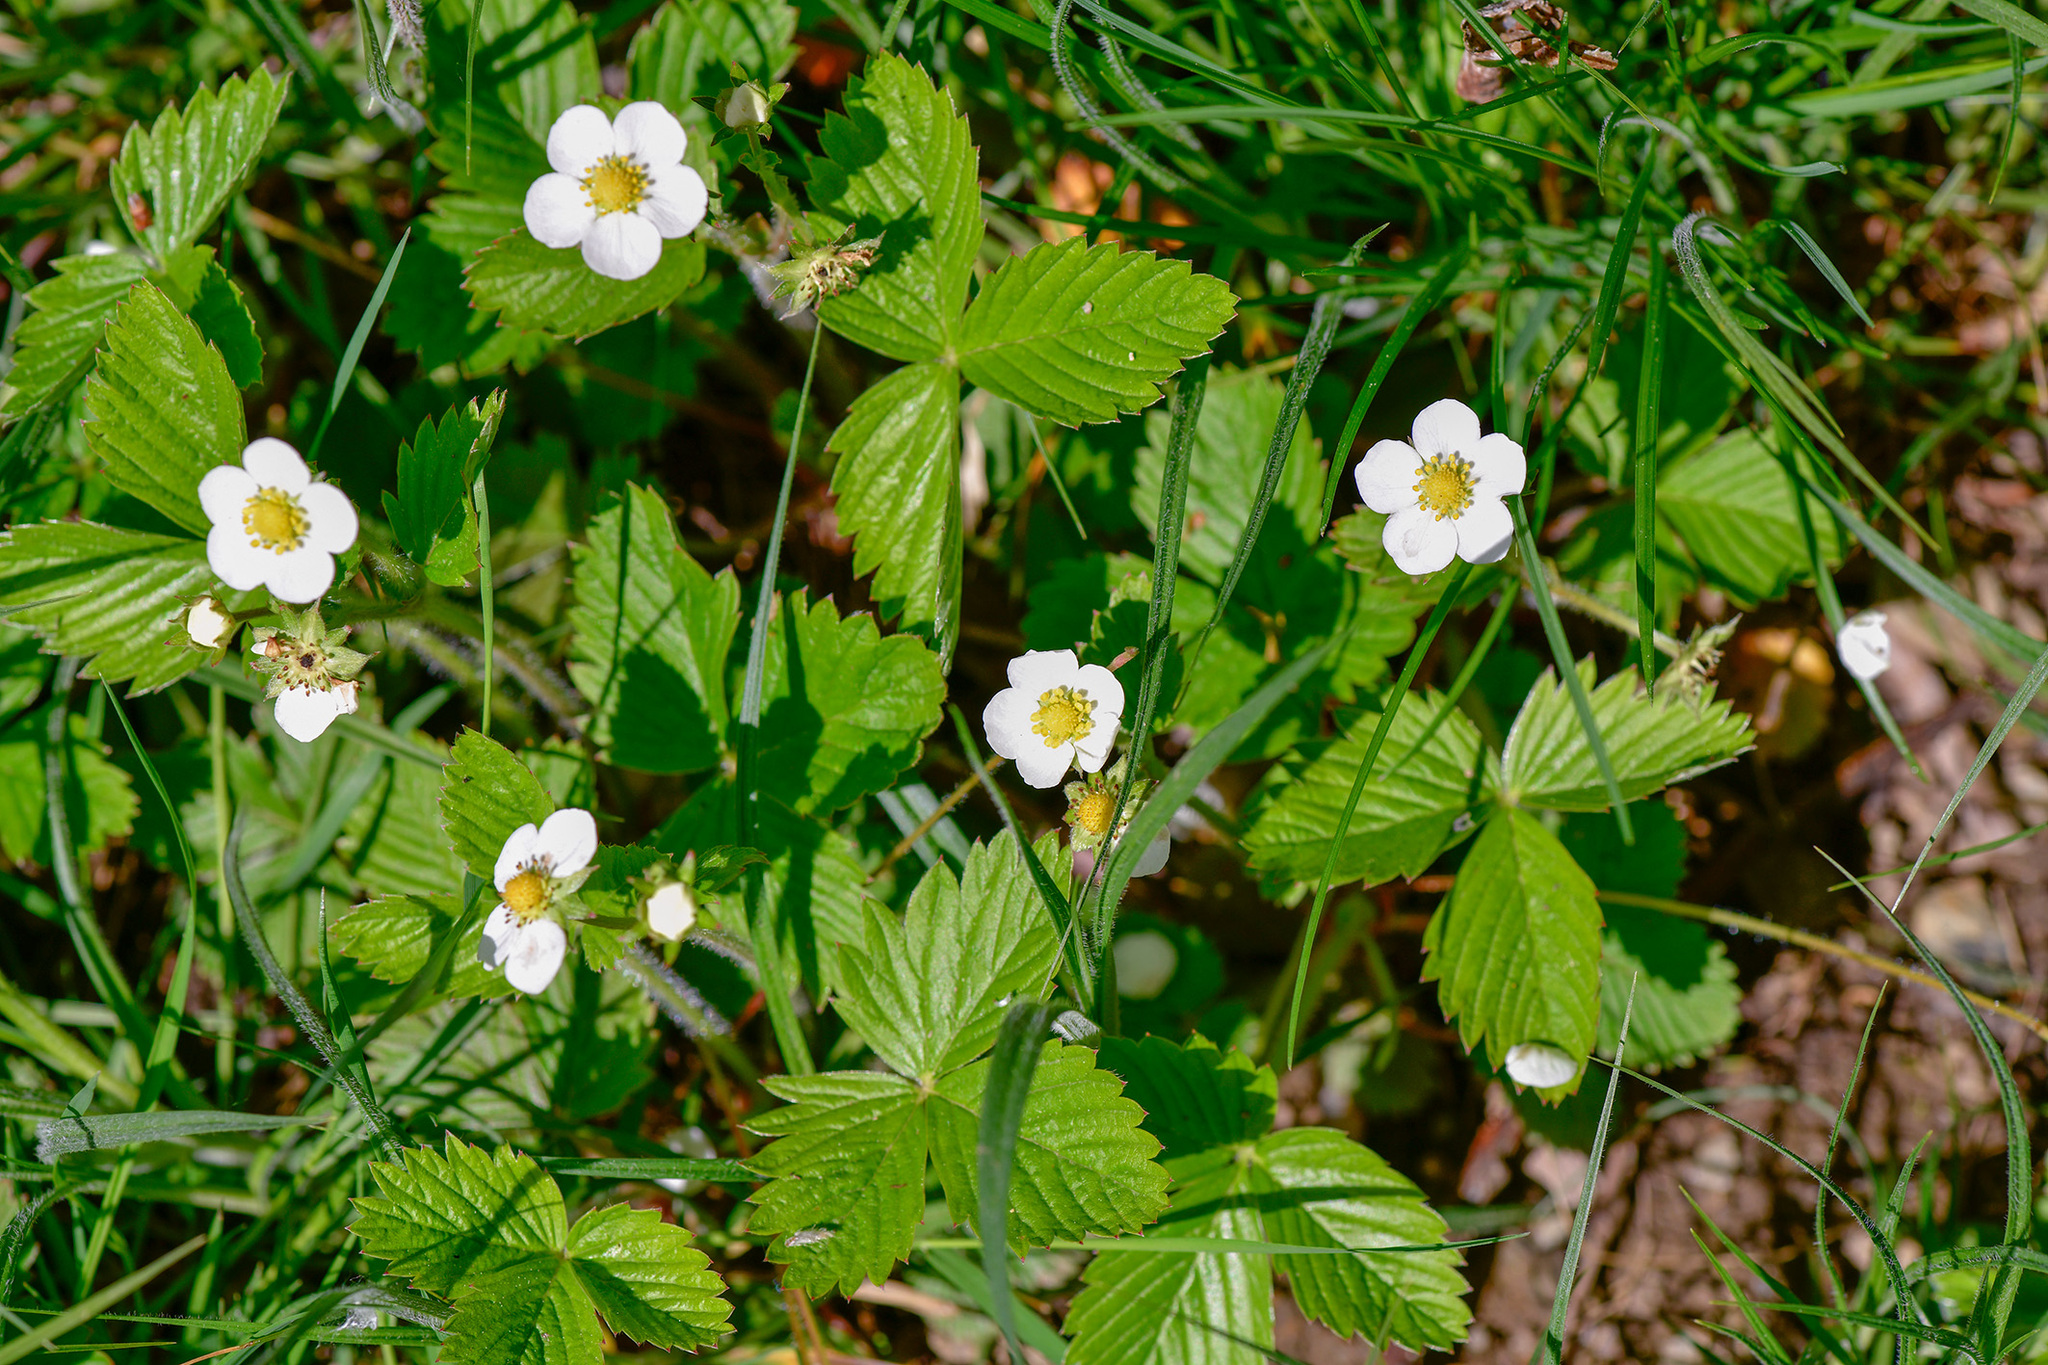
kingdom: Plantae
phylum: Tracheophyta
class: Magnoliopsida
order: Rosales
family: Rosaceae
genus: Fragaria
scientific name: Fragaria vesca
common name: Wild strawberry
